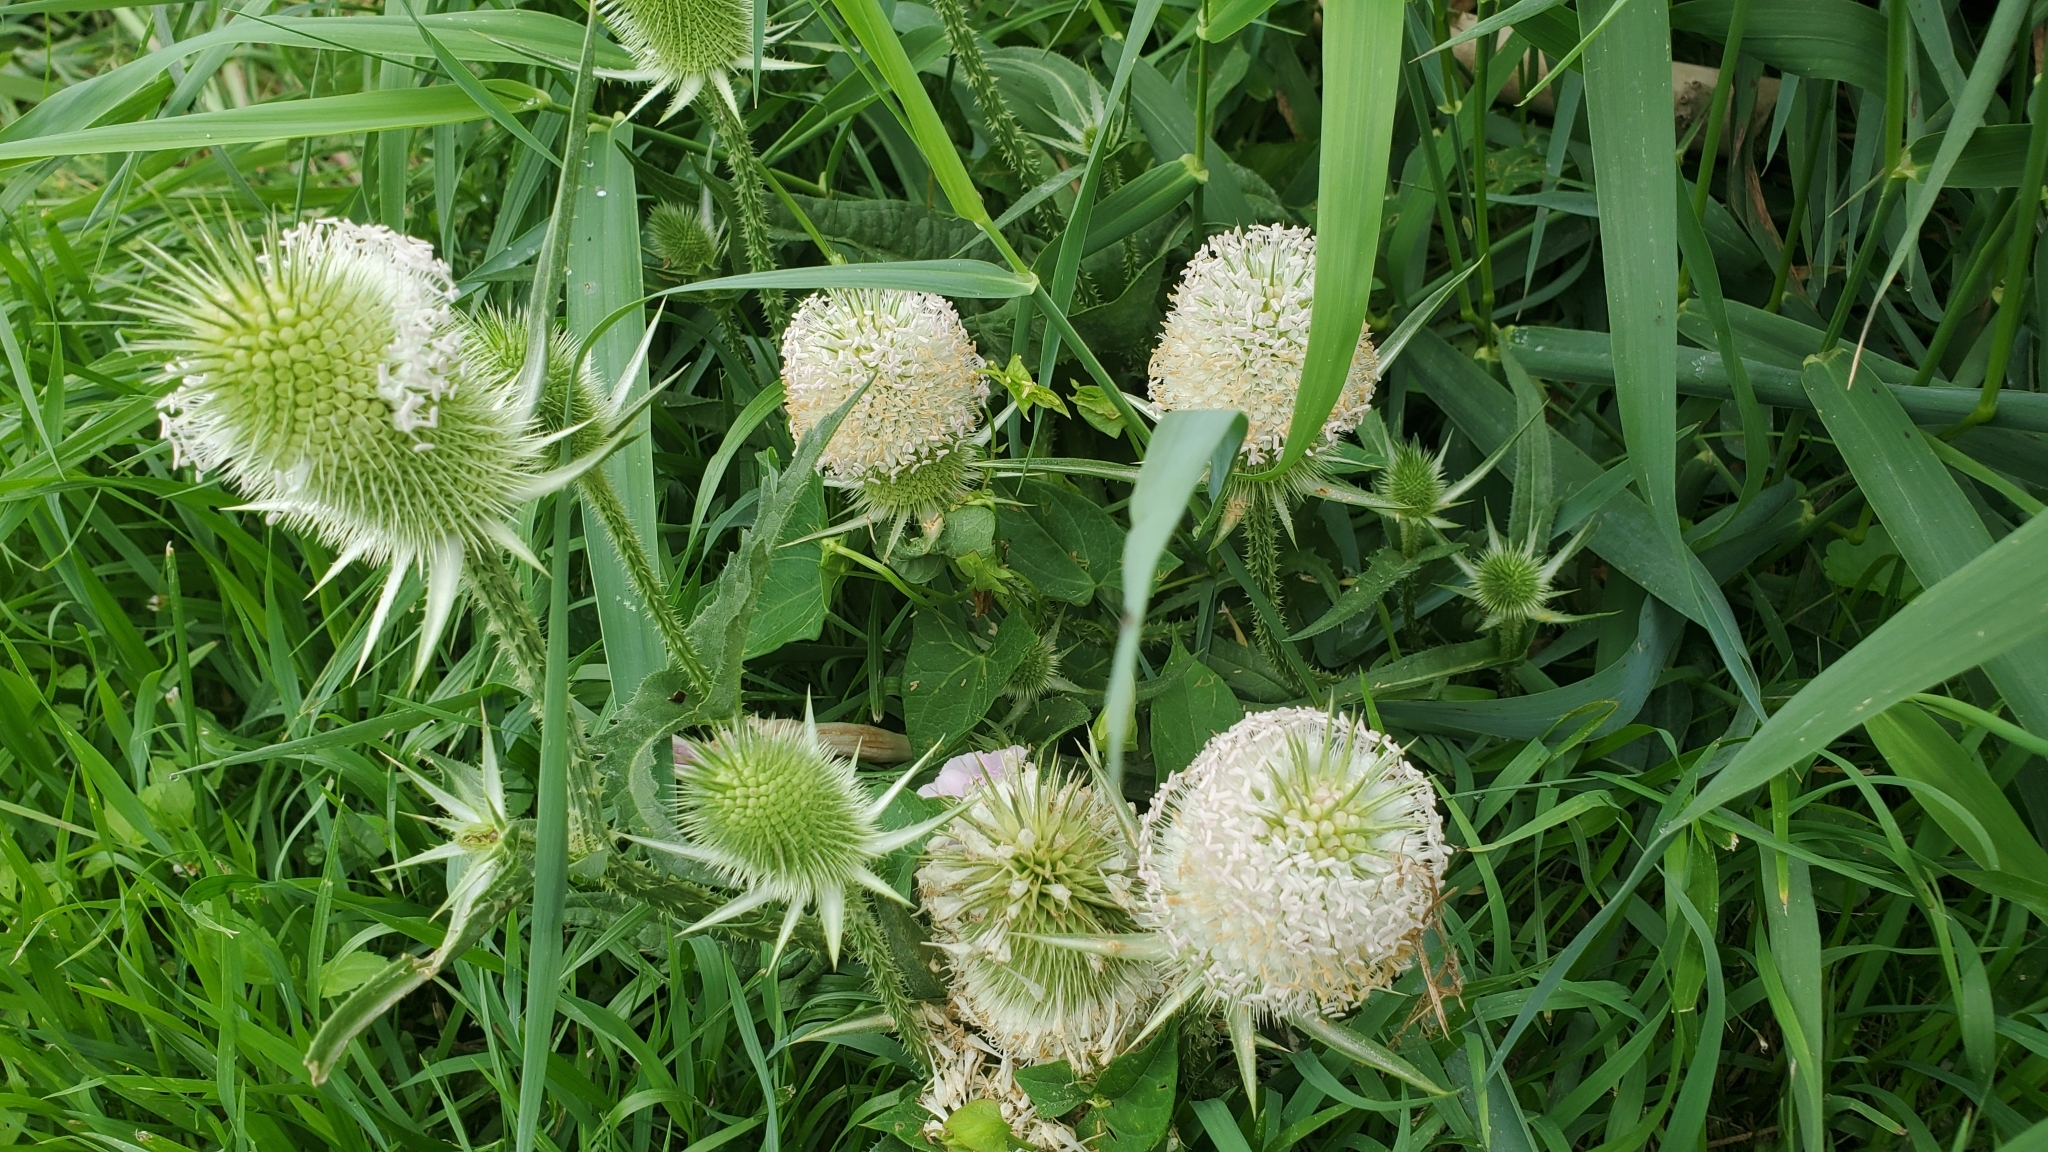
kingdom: Plantae
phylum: Tracheophyta
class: Magnoliopsida
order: Dipsacales
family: Caprifoliaceae
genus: Dipsacus
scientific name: Dipsacus laciniatus
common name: Cut-leaved teasel
